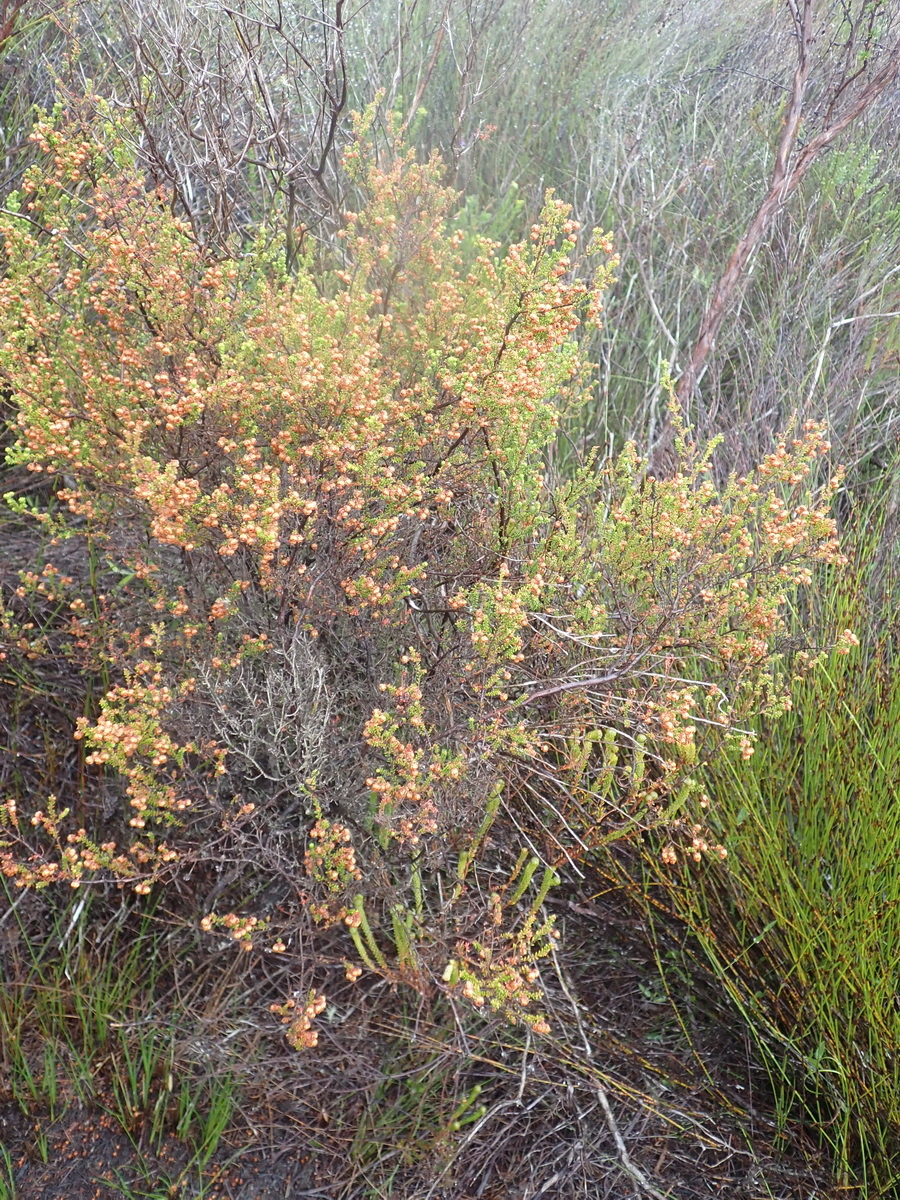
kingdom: Plantae
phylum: Tracheophyta
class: Magnoliopsida
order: Ericales
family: Ericaceae
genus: Erica
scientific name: Erica formosa
